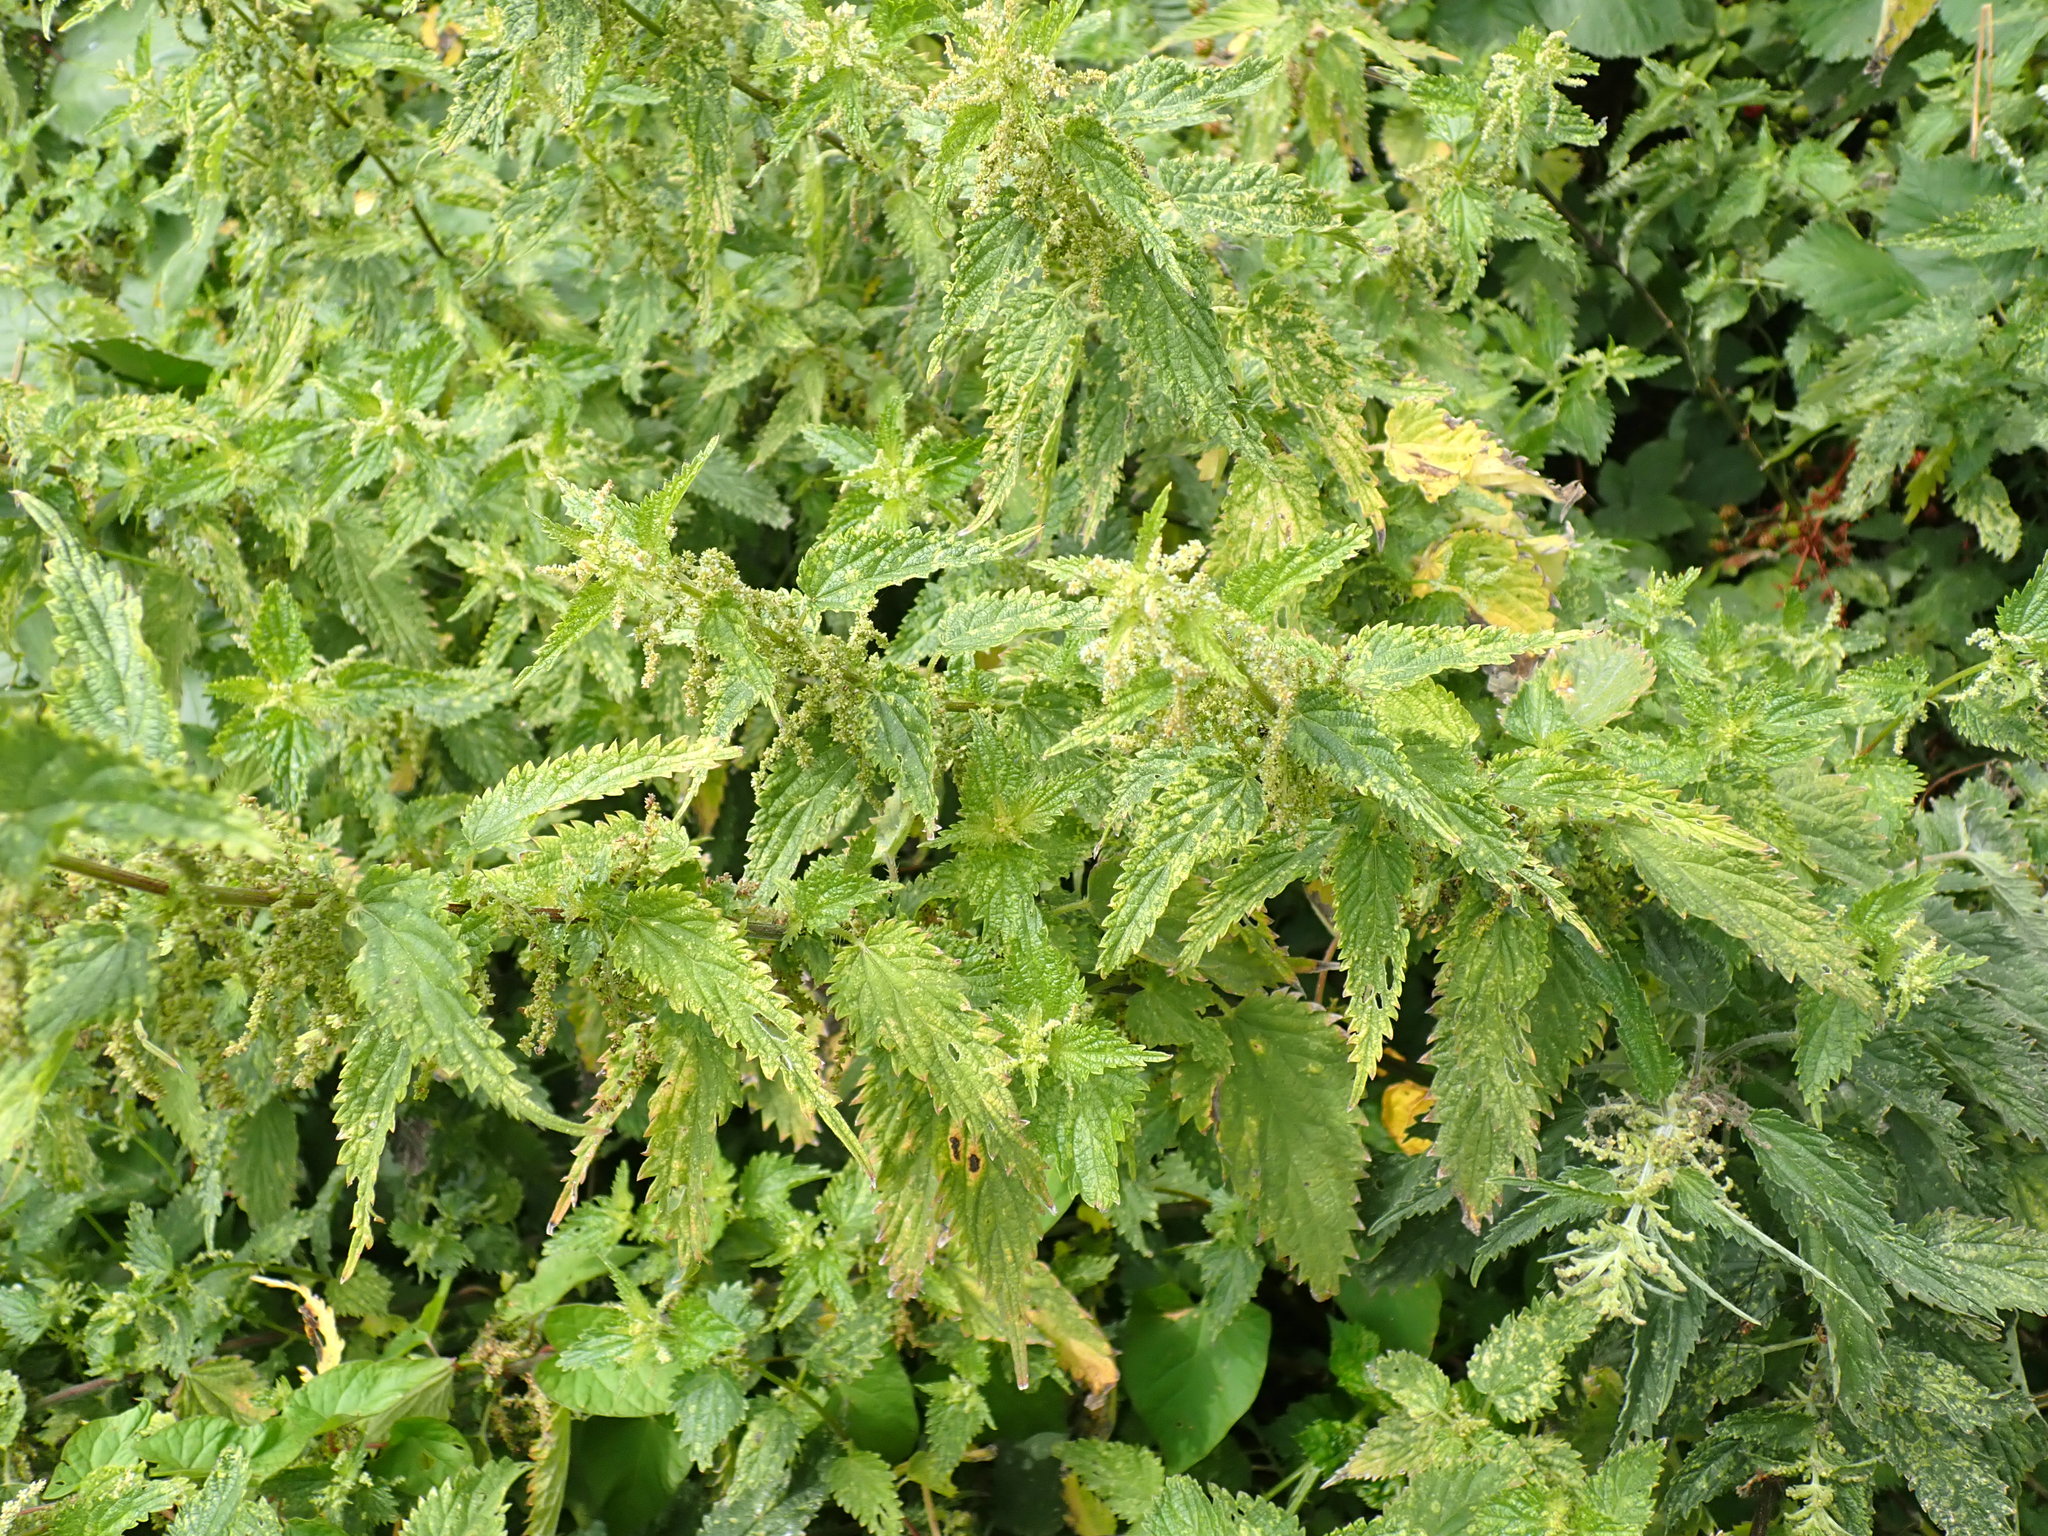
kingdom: Plantae
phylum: Tracheophyta
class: Magnoliopsida
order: Rosales
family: Urticaceae
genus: Urtica
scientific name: Urtica dioica
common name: Common nettle
